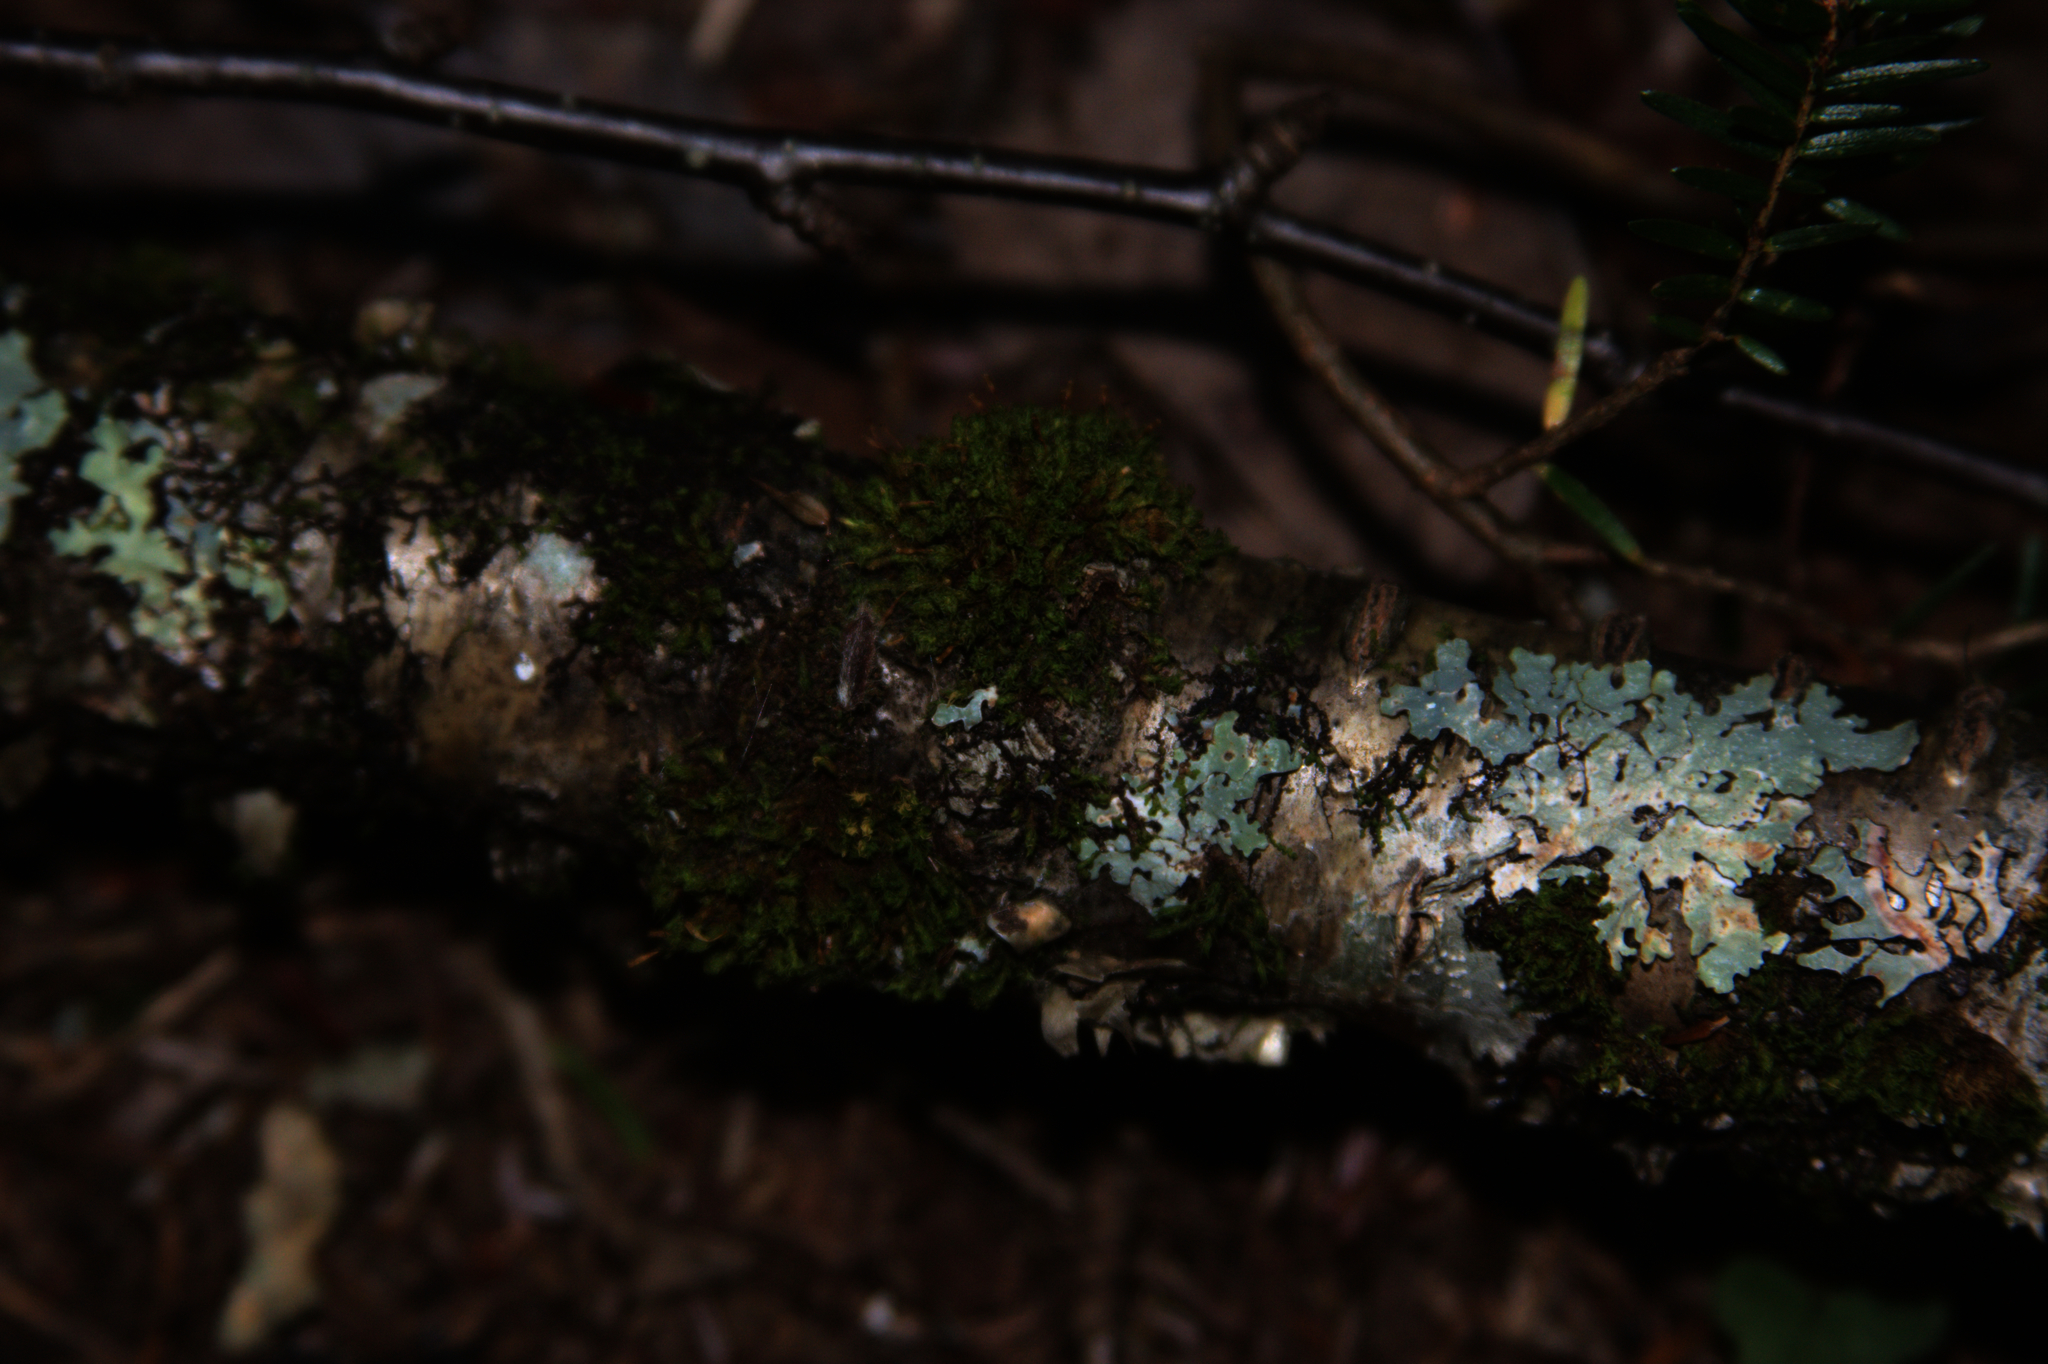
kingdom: Plantae
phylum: Bryophyta
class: Bryopsida
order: Orthotrichales
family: Orthotrichaceae
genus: Ulota
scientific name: Ulota crispa
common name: Crisped pincushion moss
